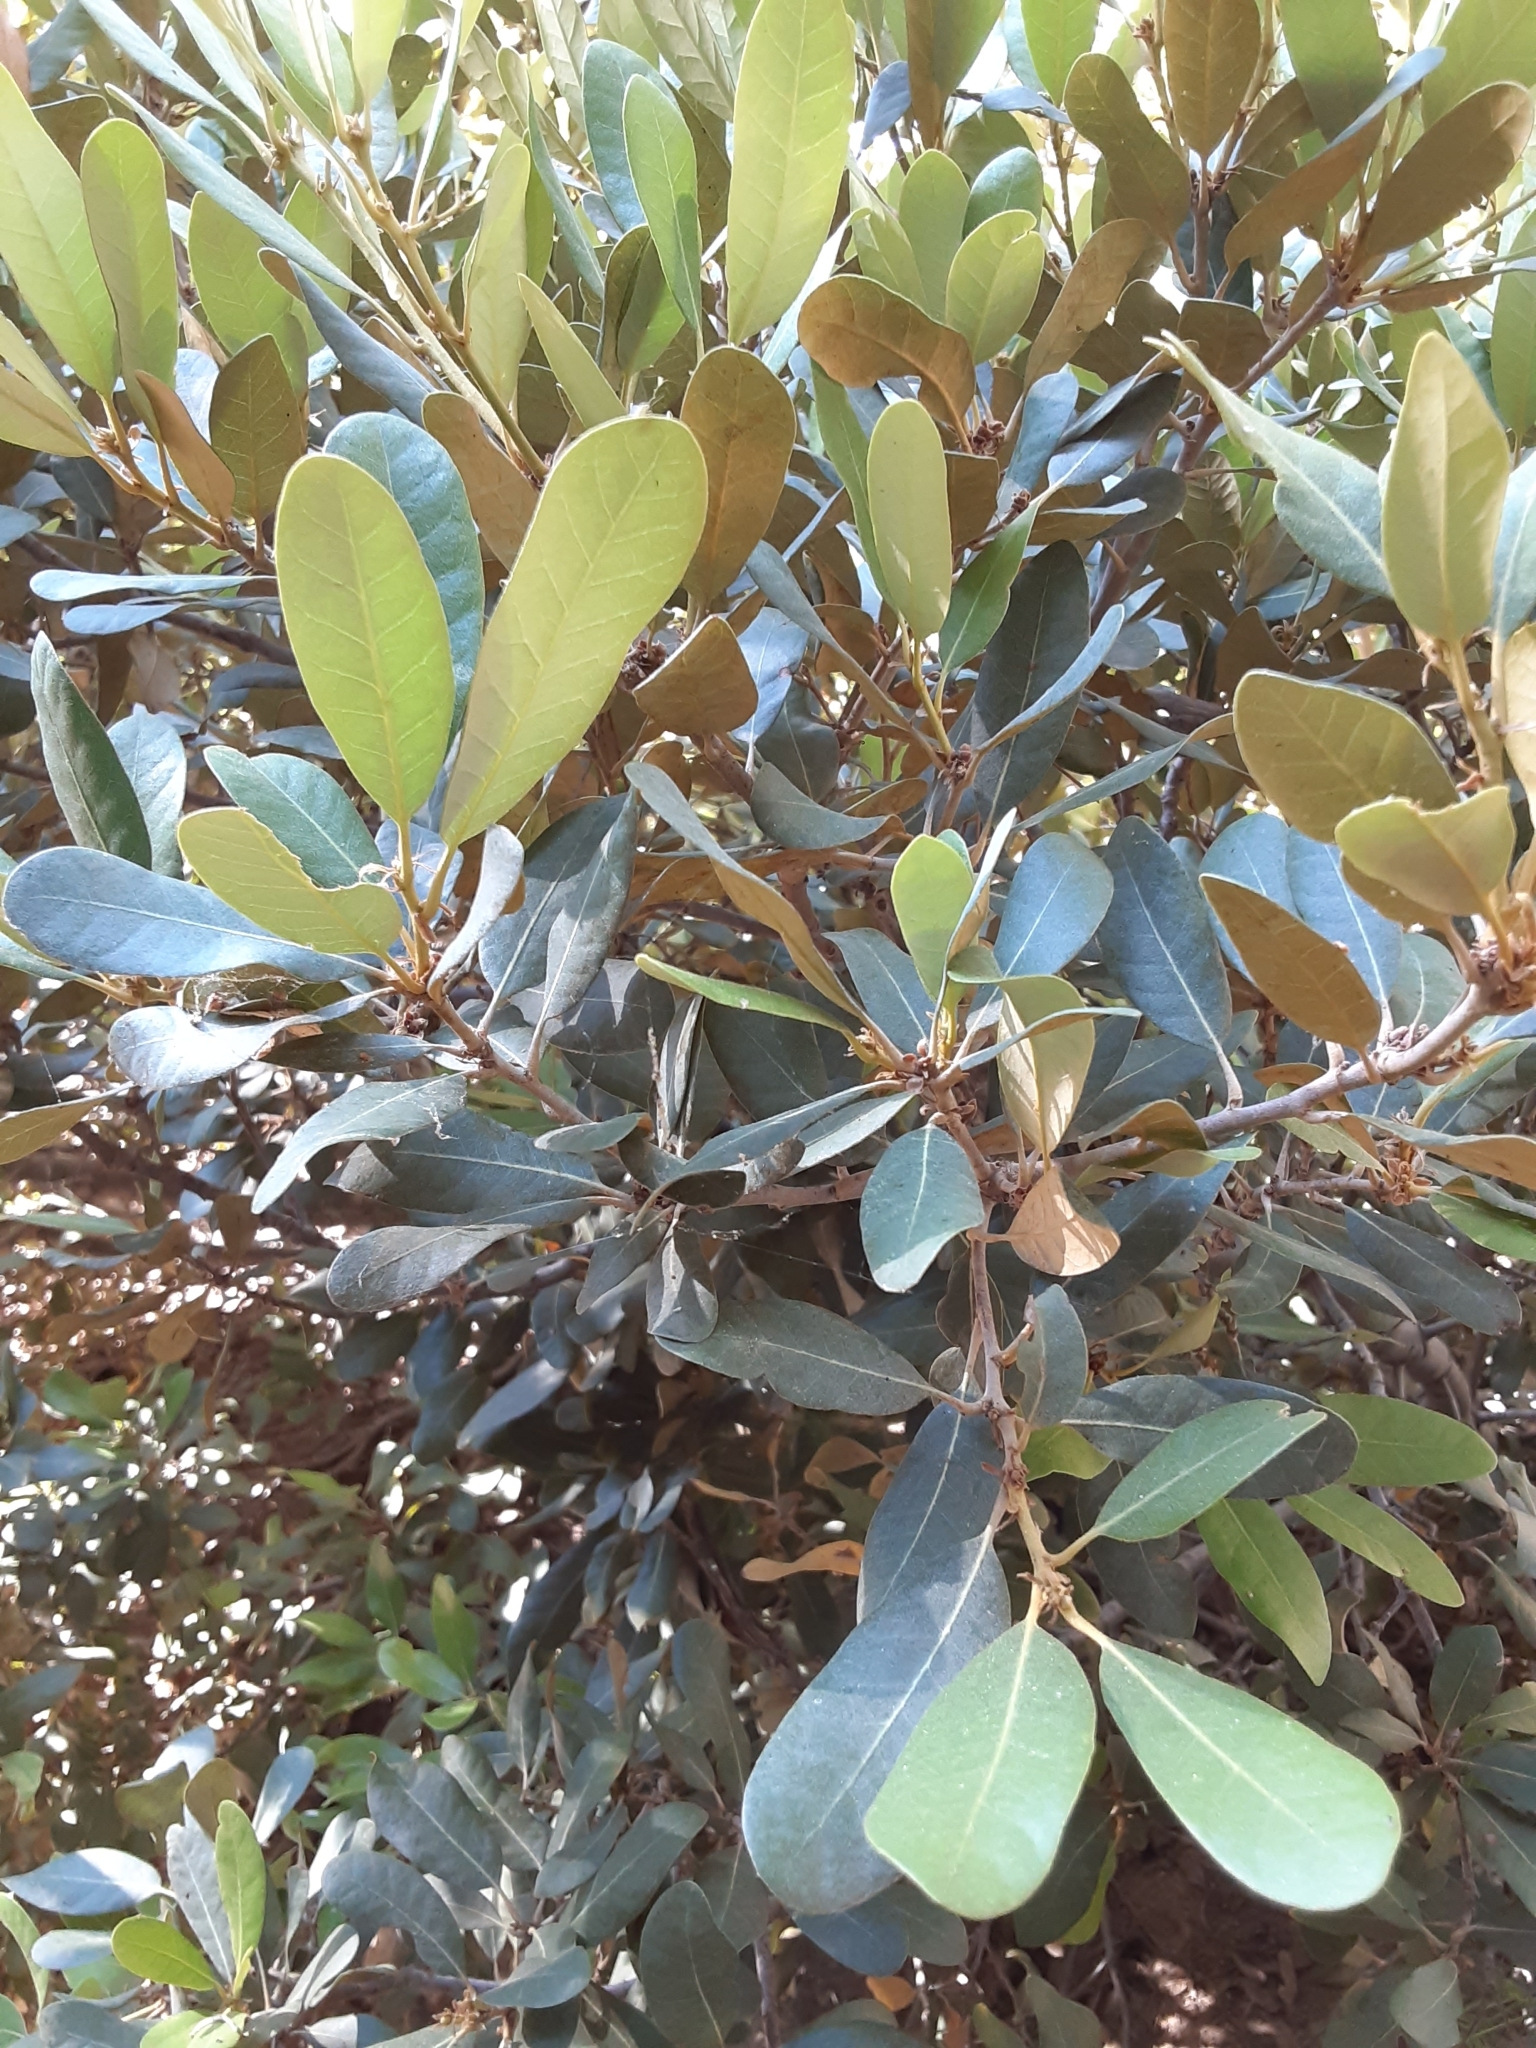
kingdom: Plantae
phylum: Tracheophyta
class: Magnoliopsida
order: Fagales
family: Fagaceae
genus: Chrysolepis
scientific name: Chrysolepis sempervirens
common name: Bush chinquapin
